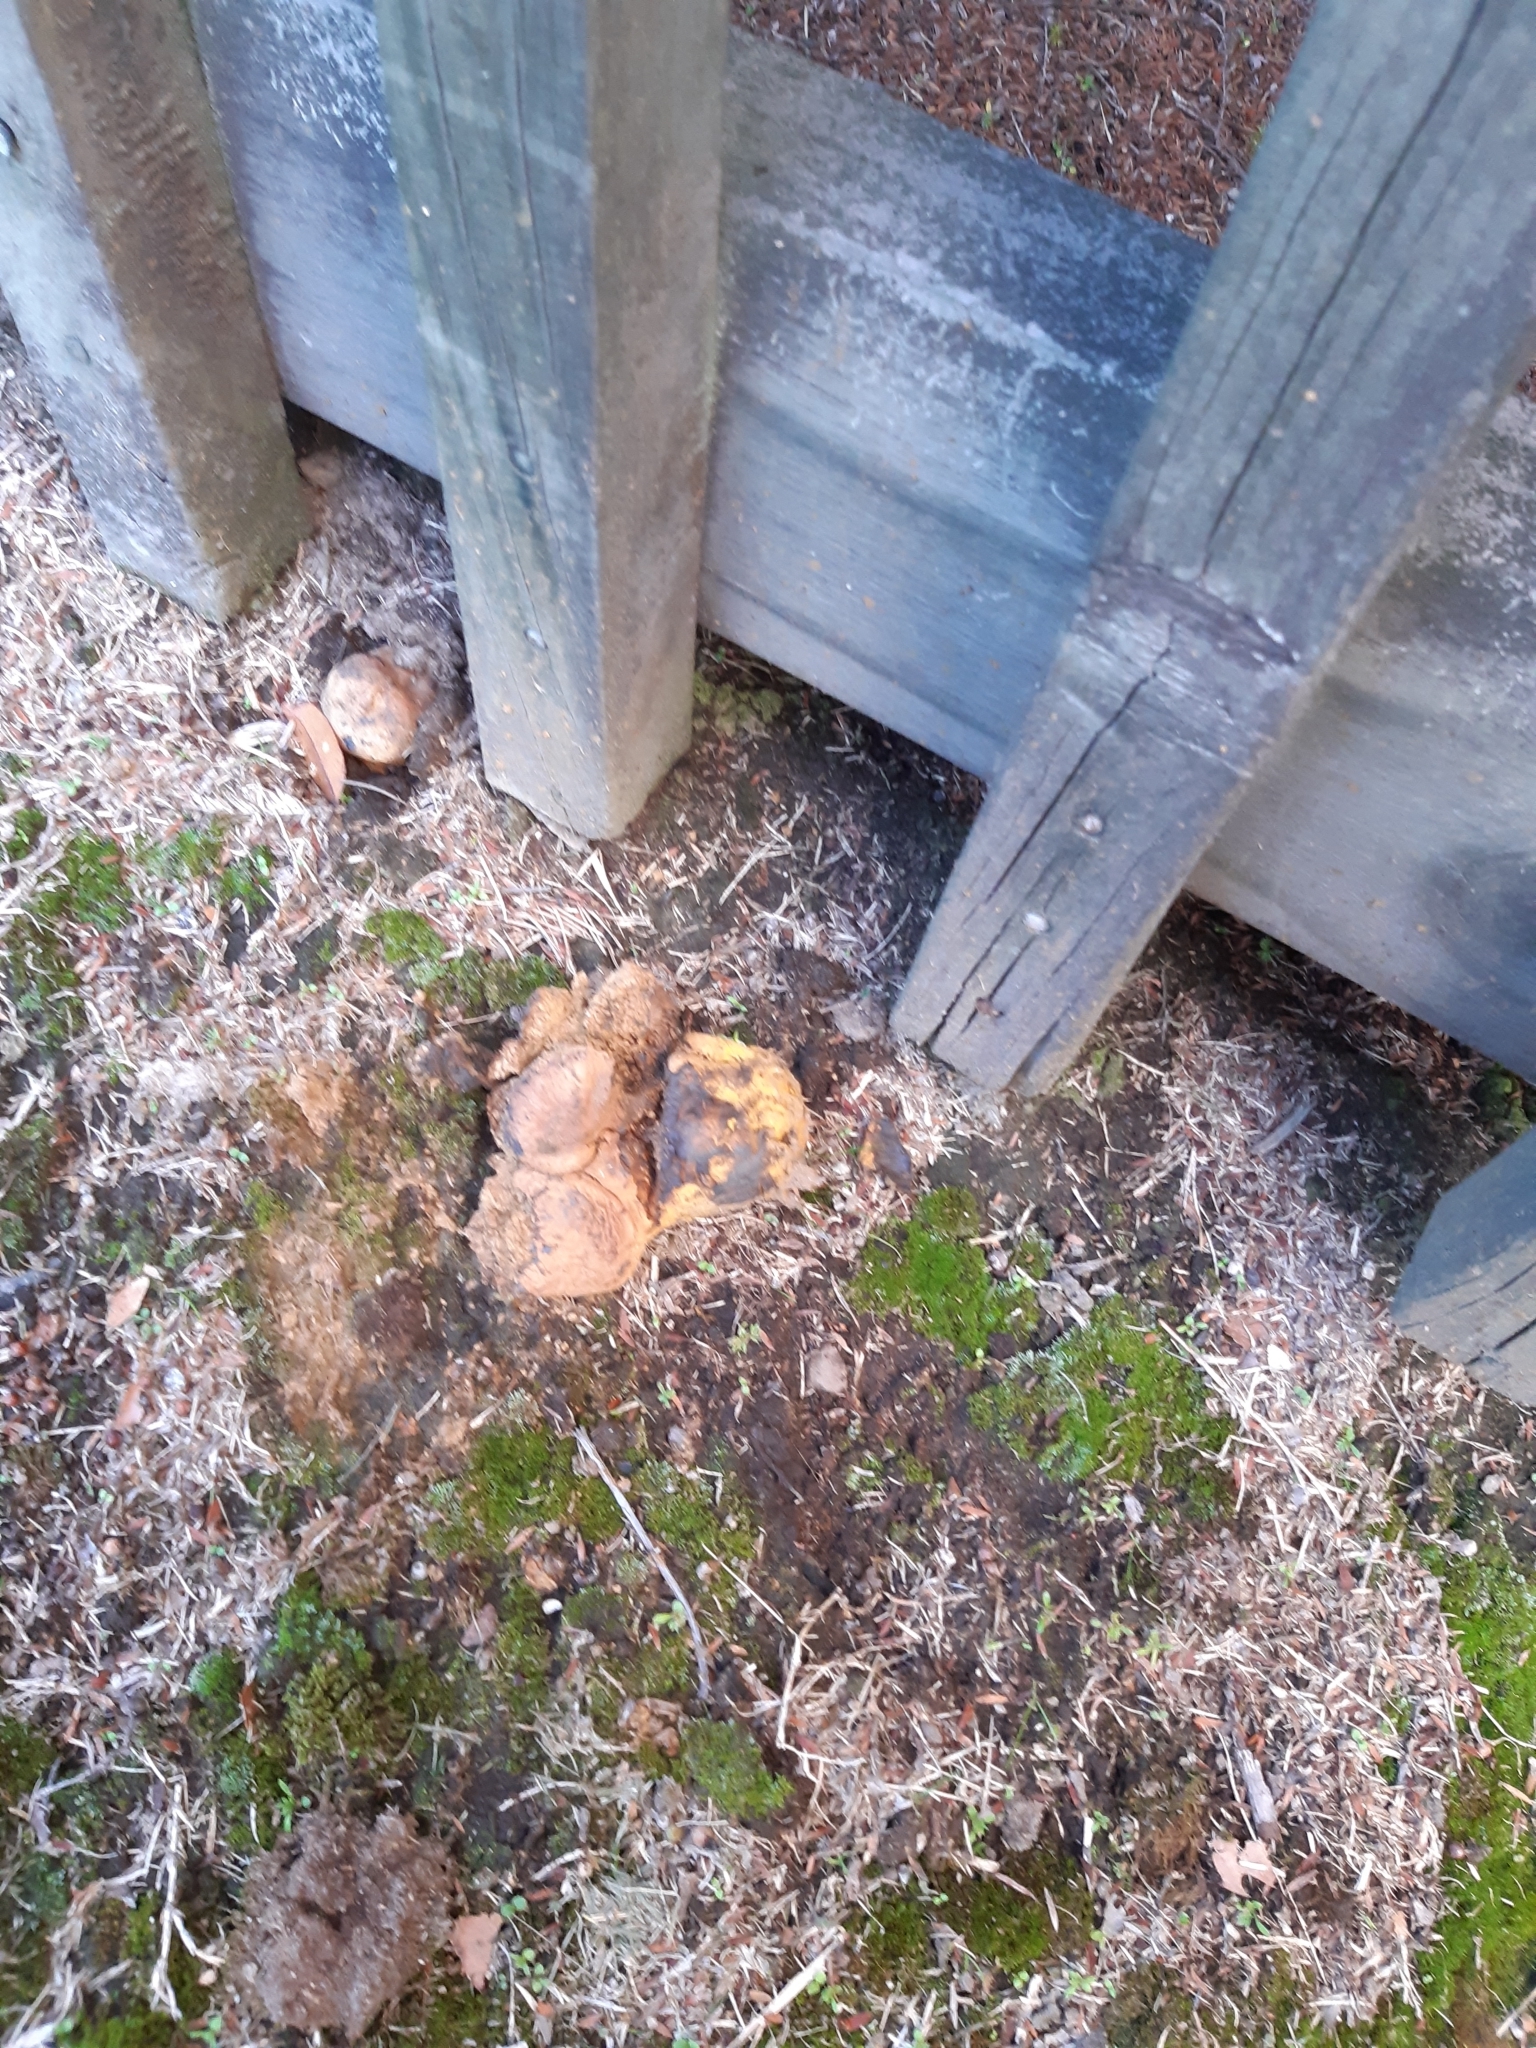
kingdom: Fungi
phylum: Basidiomycota
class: Agaricomycetes
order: Boletales
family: Sclerodermataceae
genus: Pisolithus
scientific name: Pisolithus thermaeus
